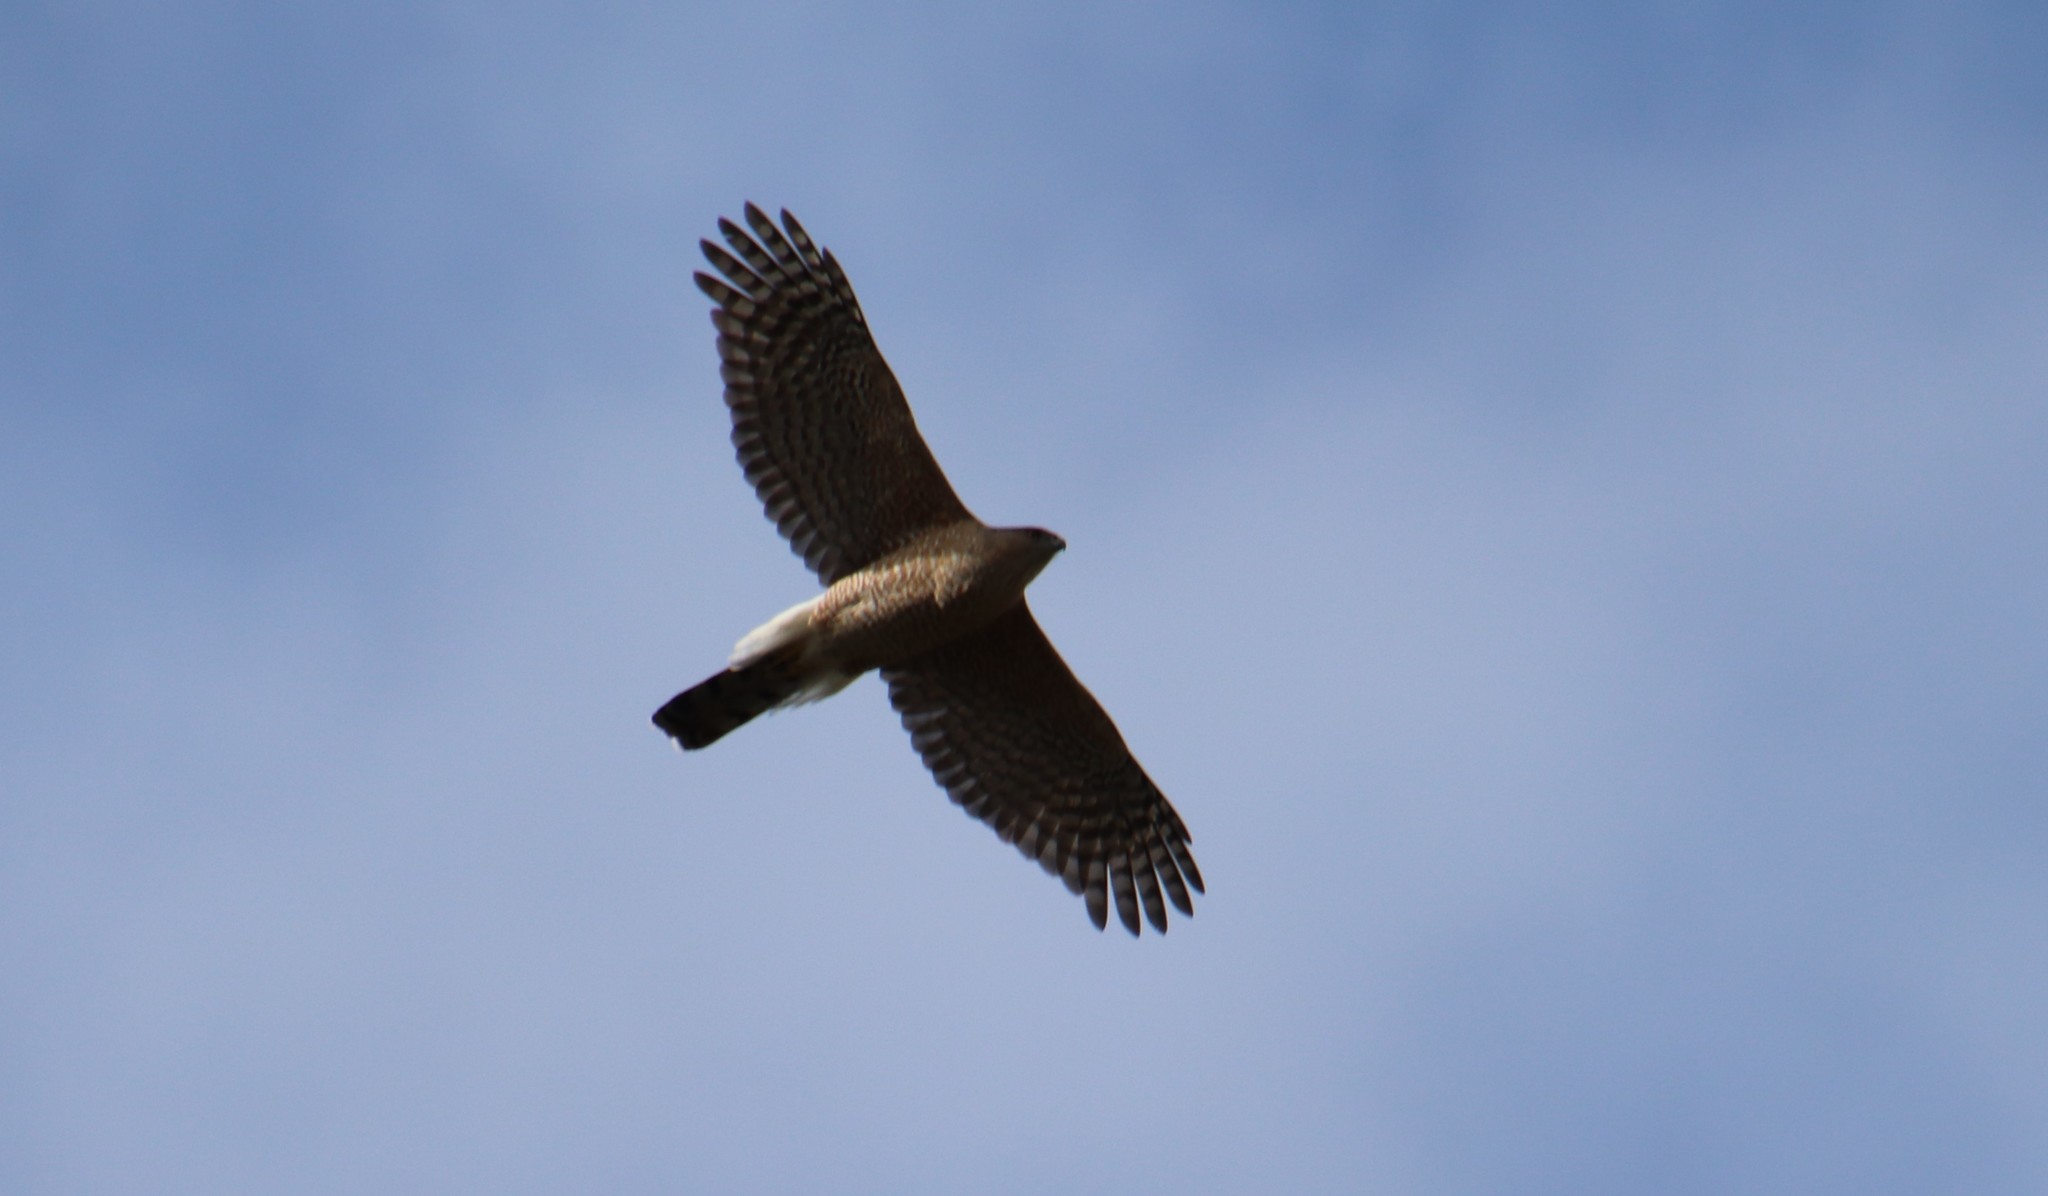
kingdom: Animalia
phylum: Chordata
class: Aves
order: Accipitriformes
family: Accipitridae
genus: Accipiter
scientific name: Accipiter cooperii
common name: Cooper's hawk
